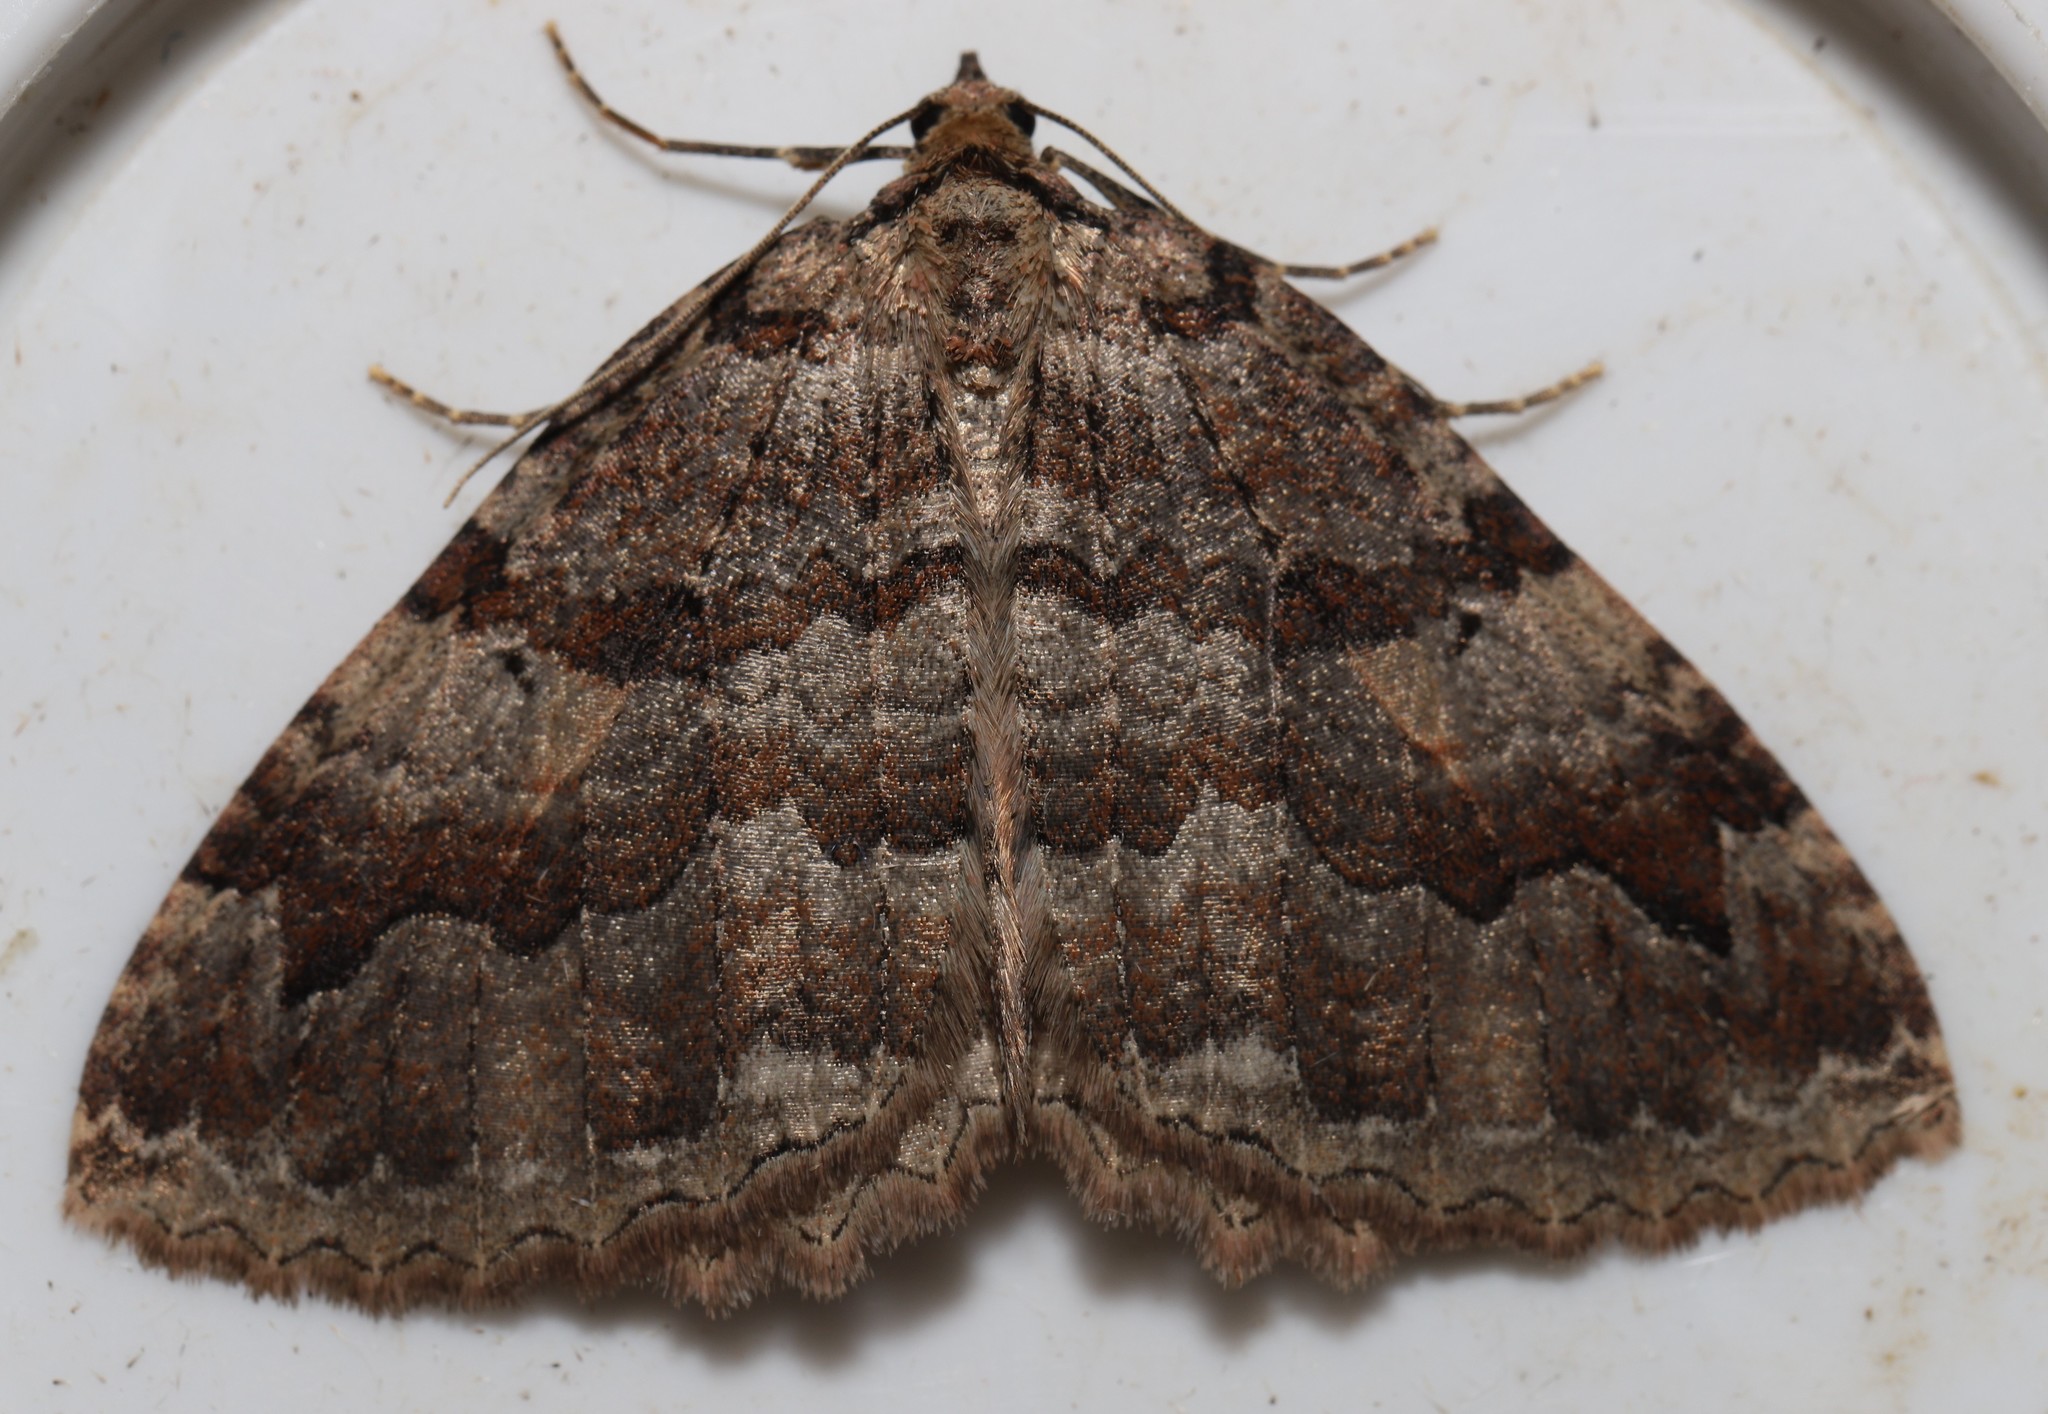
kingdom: Animalia
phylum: Arthropoda
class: Insecta
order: Lepidoptera
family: Geometridae
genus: Triphosa
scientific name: Triphosa haesitata
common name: Tissue moth
